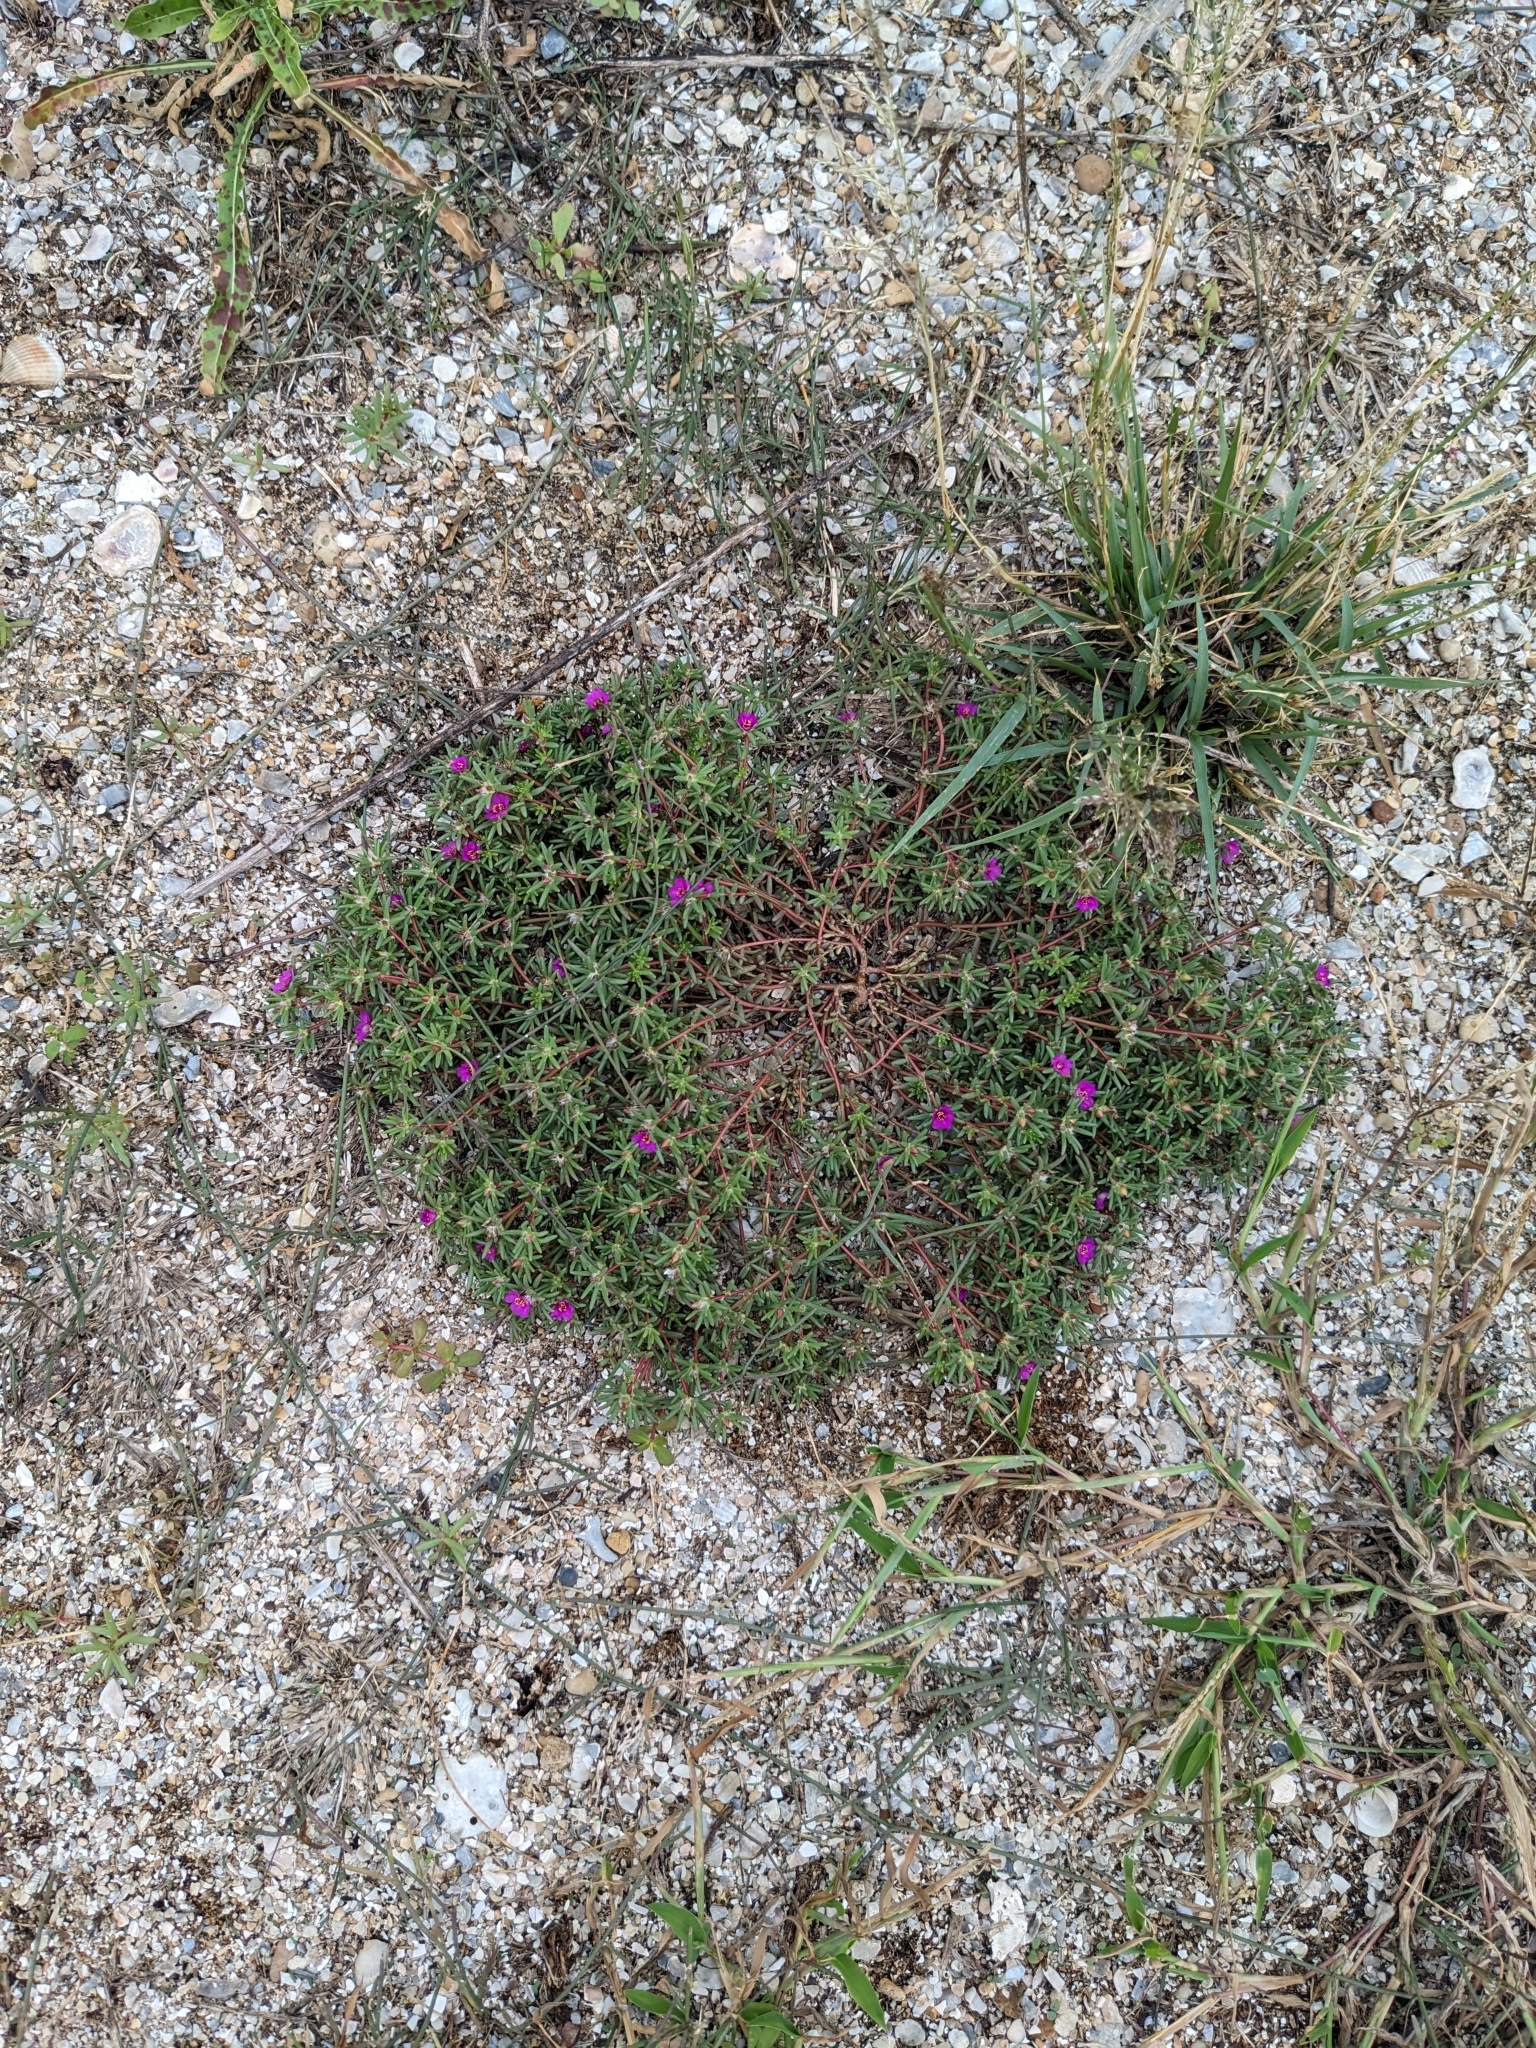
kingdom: Plantae
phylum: Tracheophyta
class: Magnoliopsida
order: Caryophyllales
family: Portulacaceae
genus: Portulaca
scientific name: Portulaca pilosa
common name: Kiss me quick
